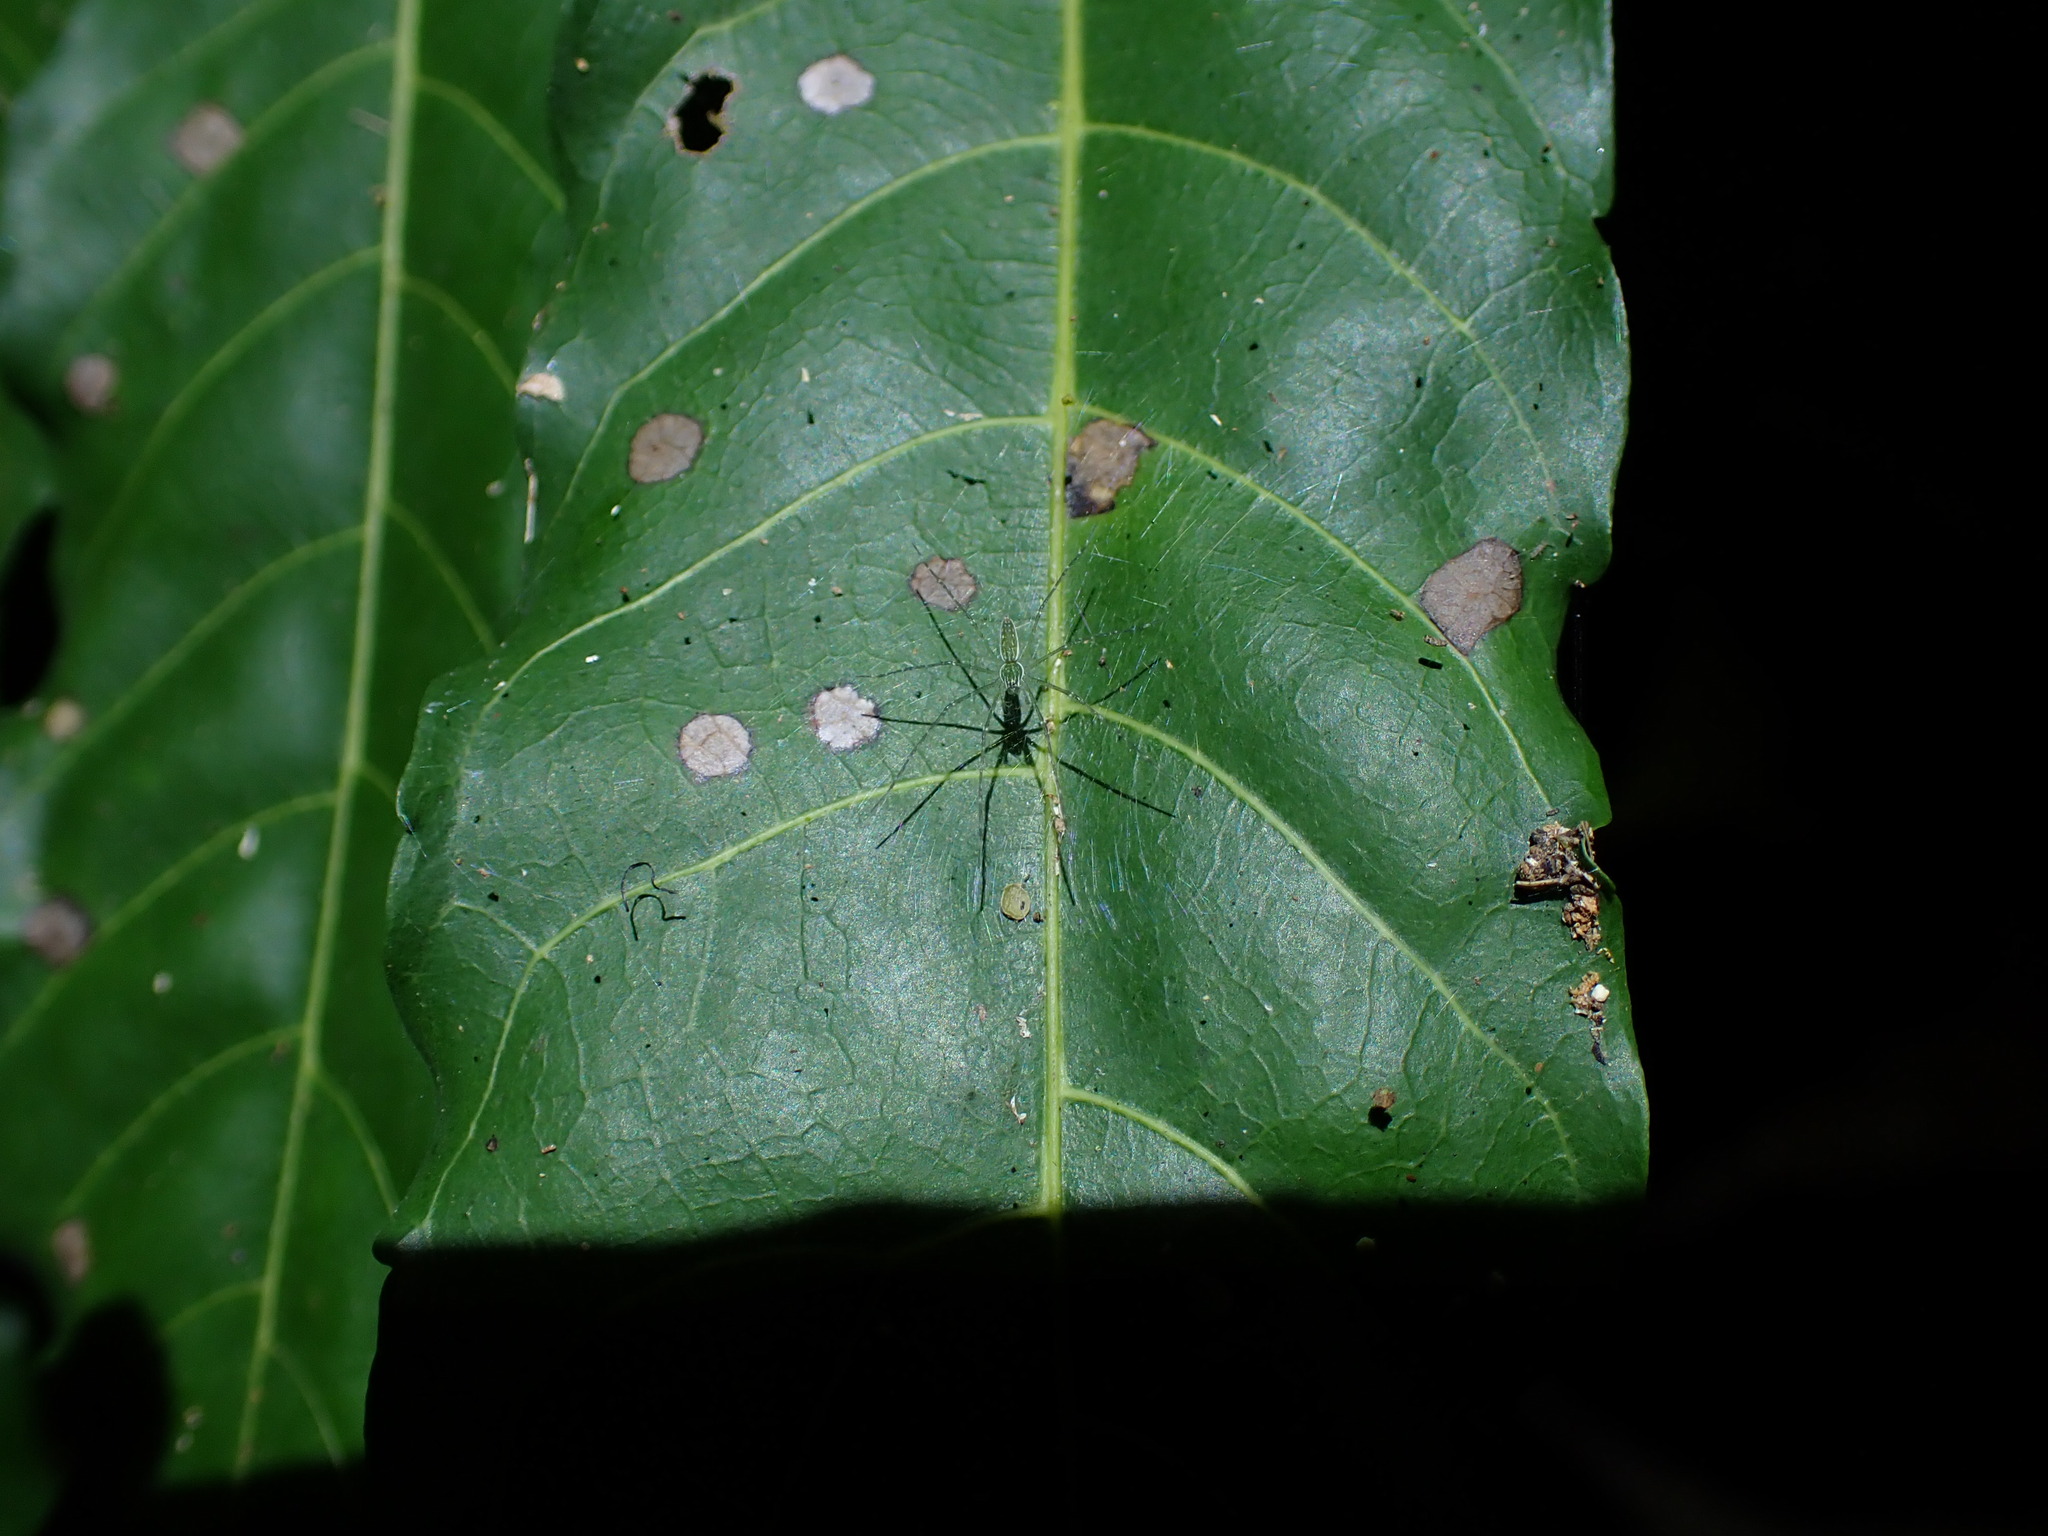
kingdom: Animalia
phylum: Arthropoda
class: Arachnida
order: Araneae
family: Pisauridae
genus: Hygropoda
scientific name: Hygropoda lineata
